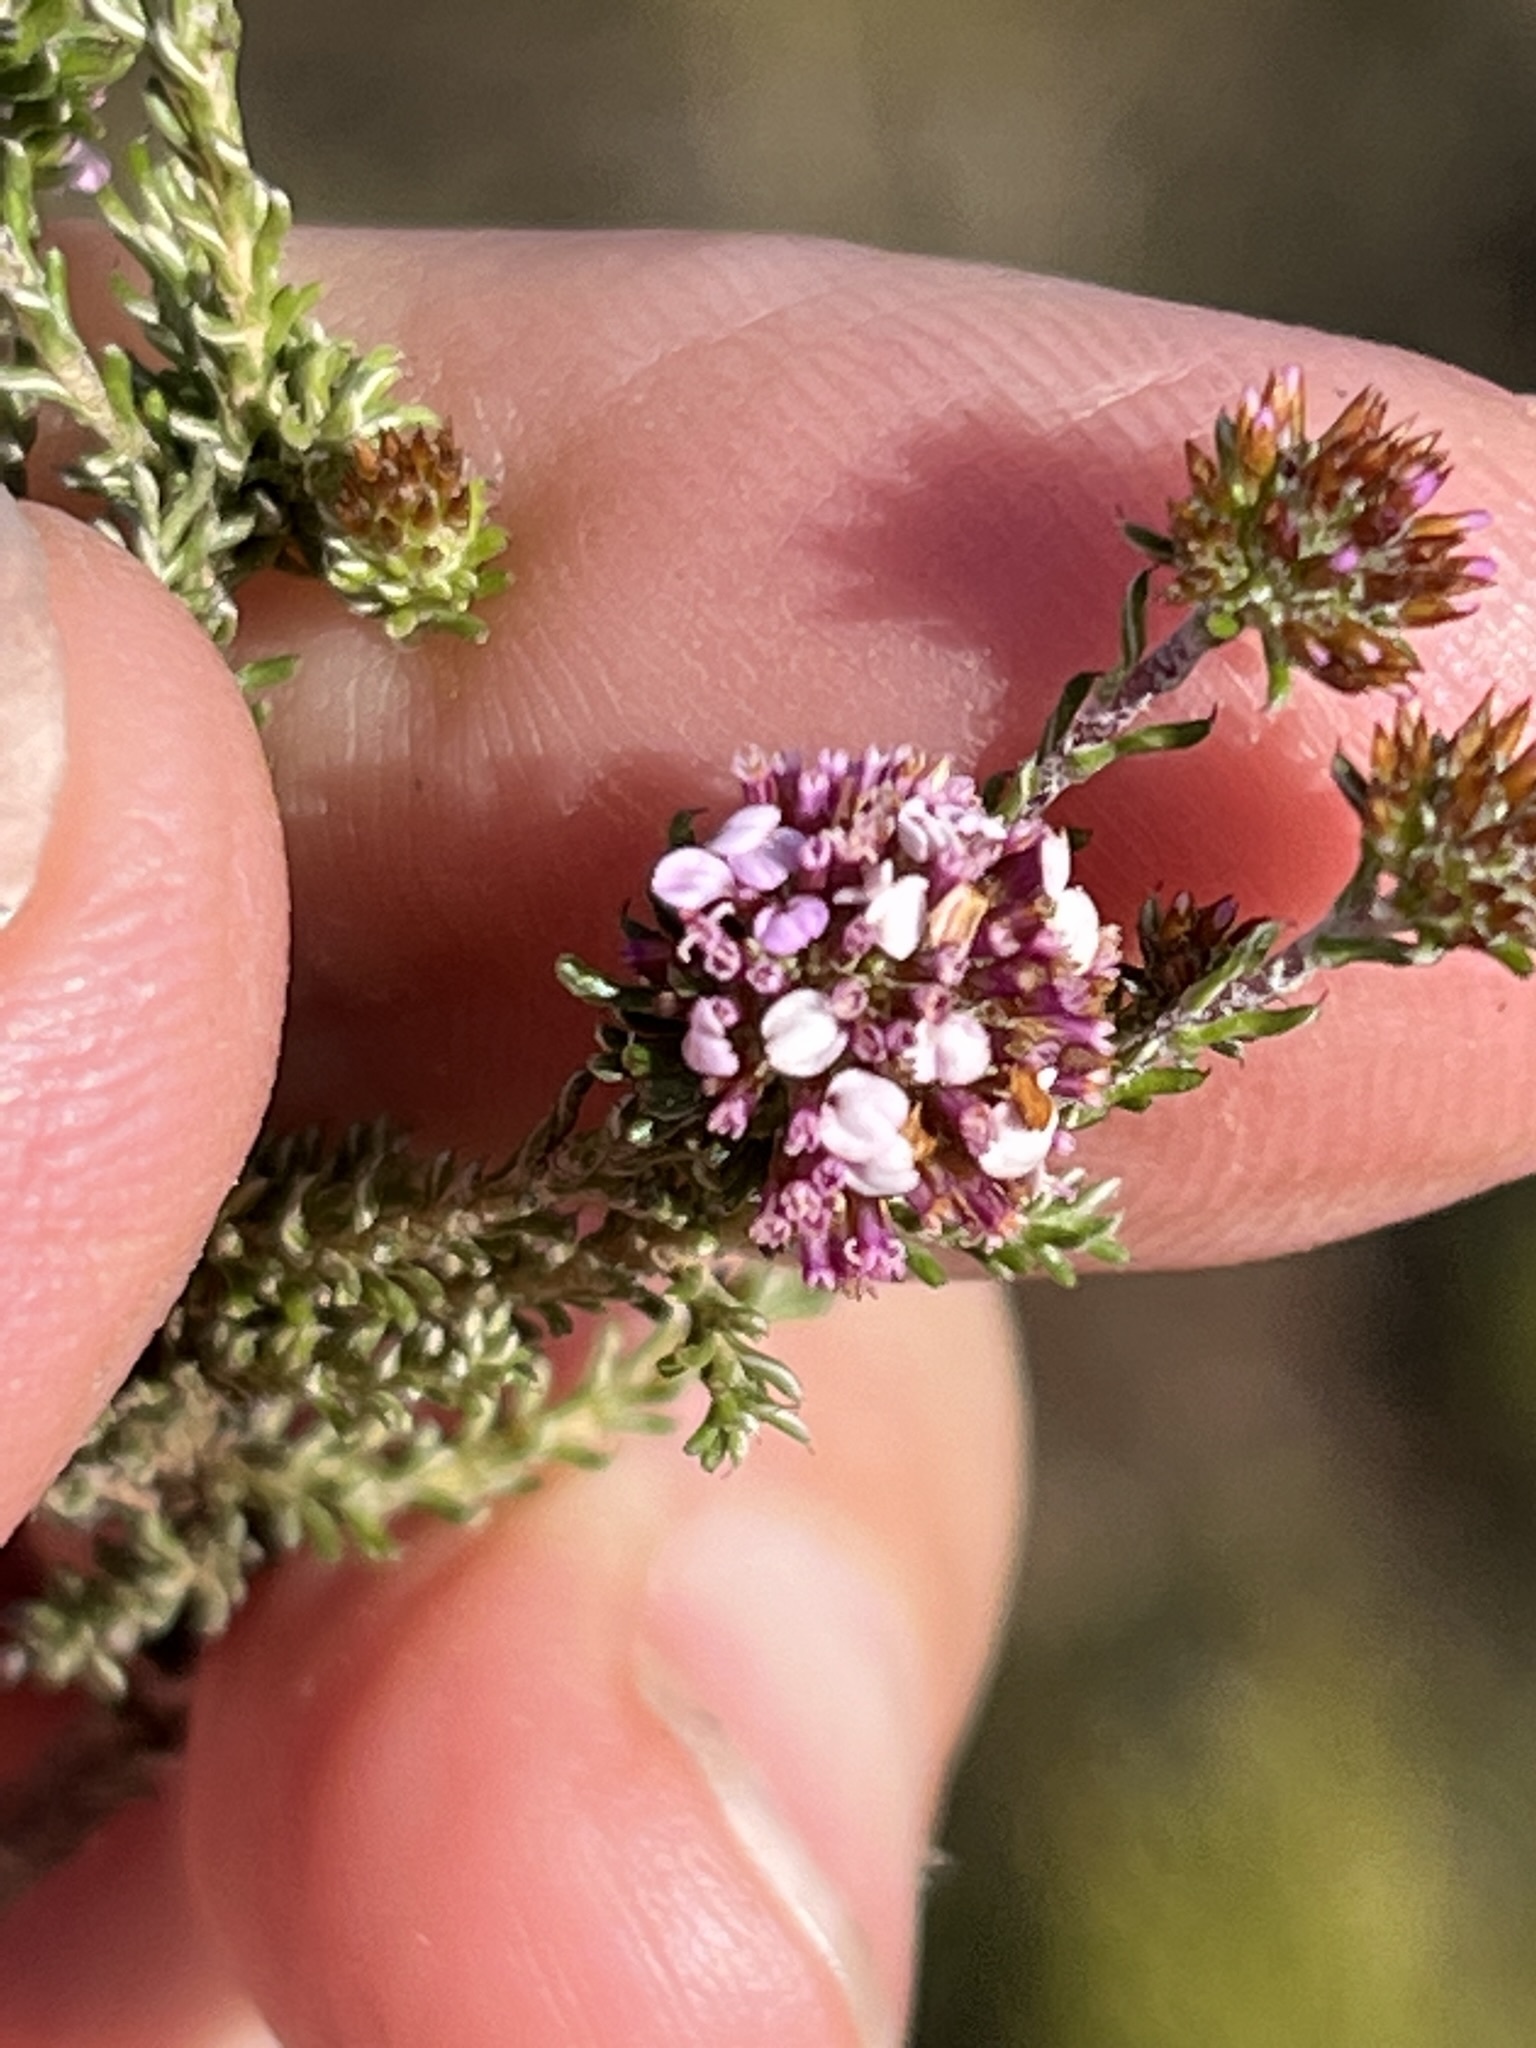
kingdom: Plantae
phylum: Tracheophyta
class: Magnoliopsida
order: Asterales
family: Asteraceae
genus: Disparago
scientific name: Disparago ericoides
